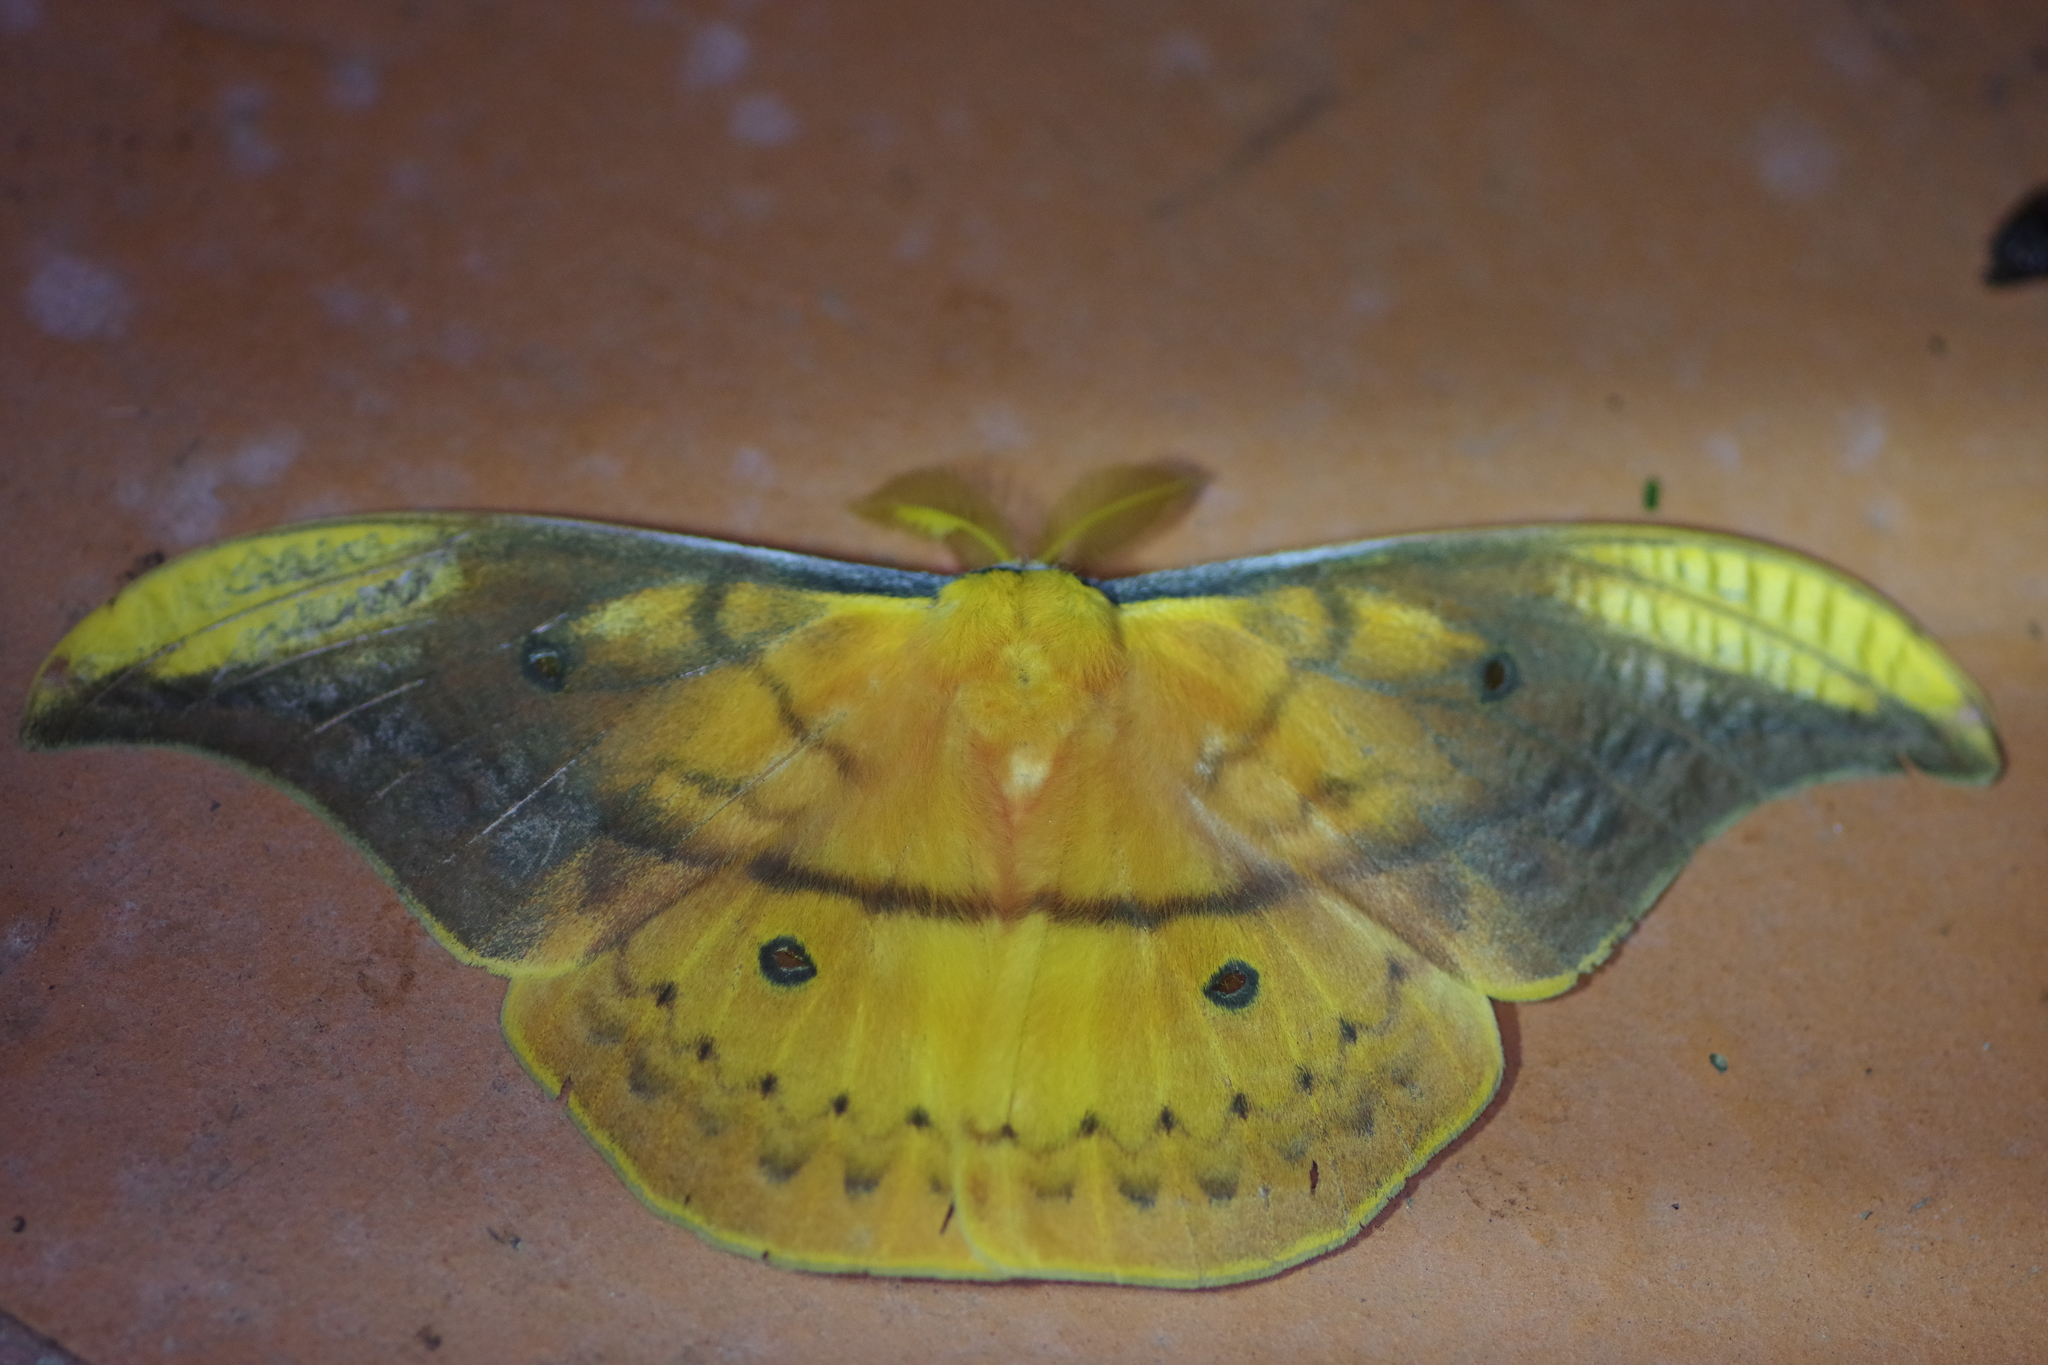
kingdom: Animalia
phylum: Arthropoda
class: Insecta
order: Lepidoptera
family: Saturniidae
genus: Copaxa
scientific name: Copaxa syntheratoides
